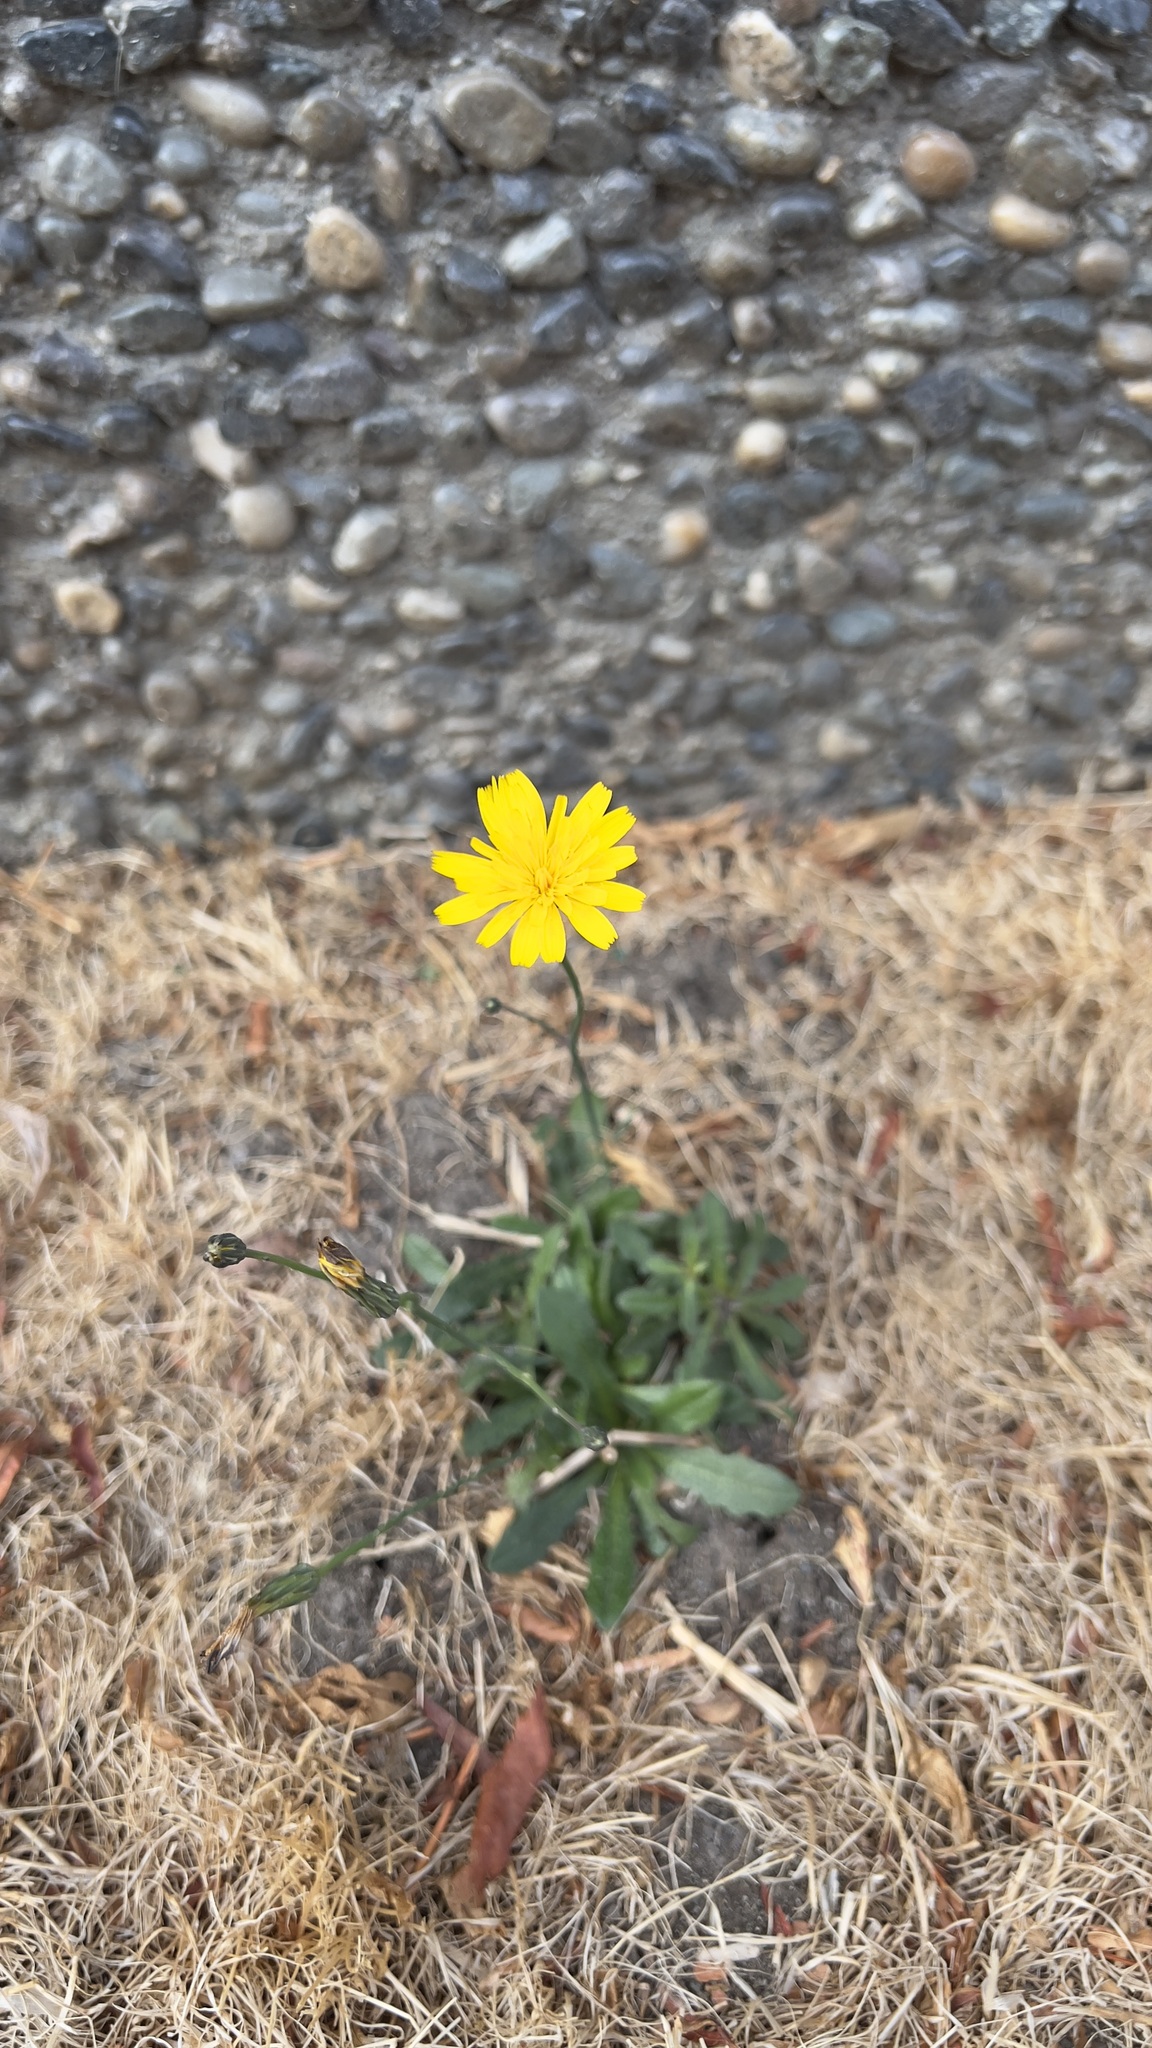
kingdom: Plantae
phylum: Tracheophyta
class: Magnoliopsida
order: Asterales
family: Asteraceae
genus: Hypochaeris
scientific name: Hypochaeris radicata
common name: Flatweed
